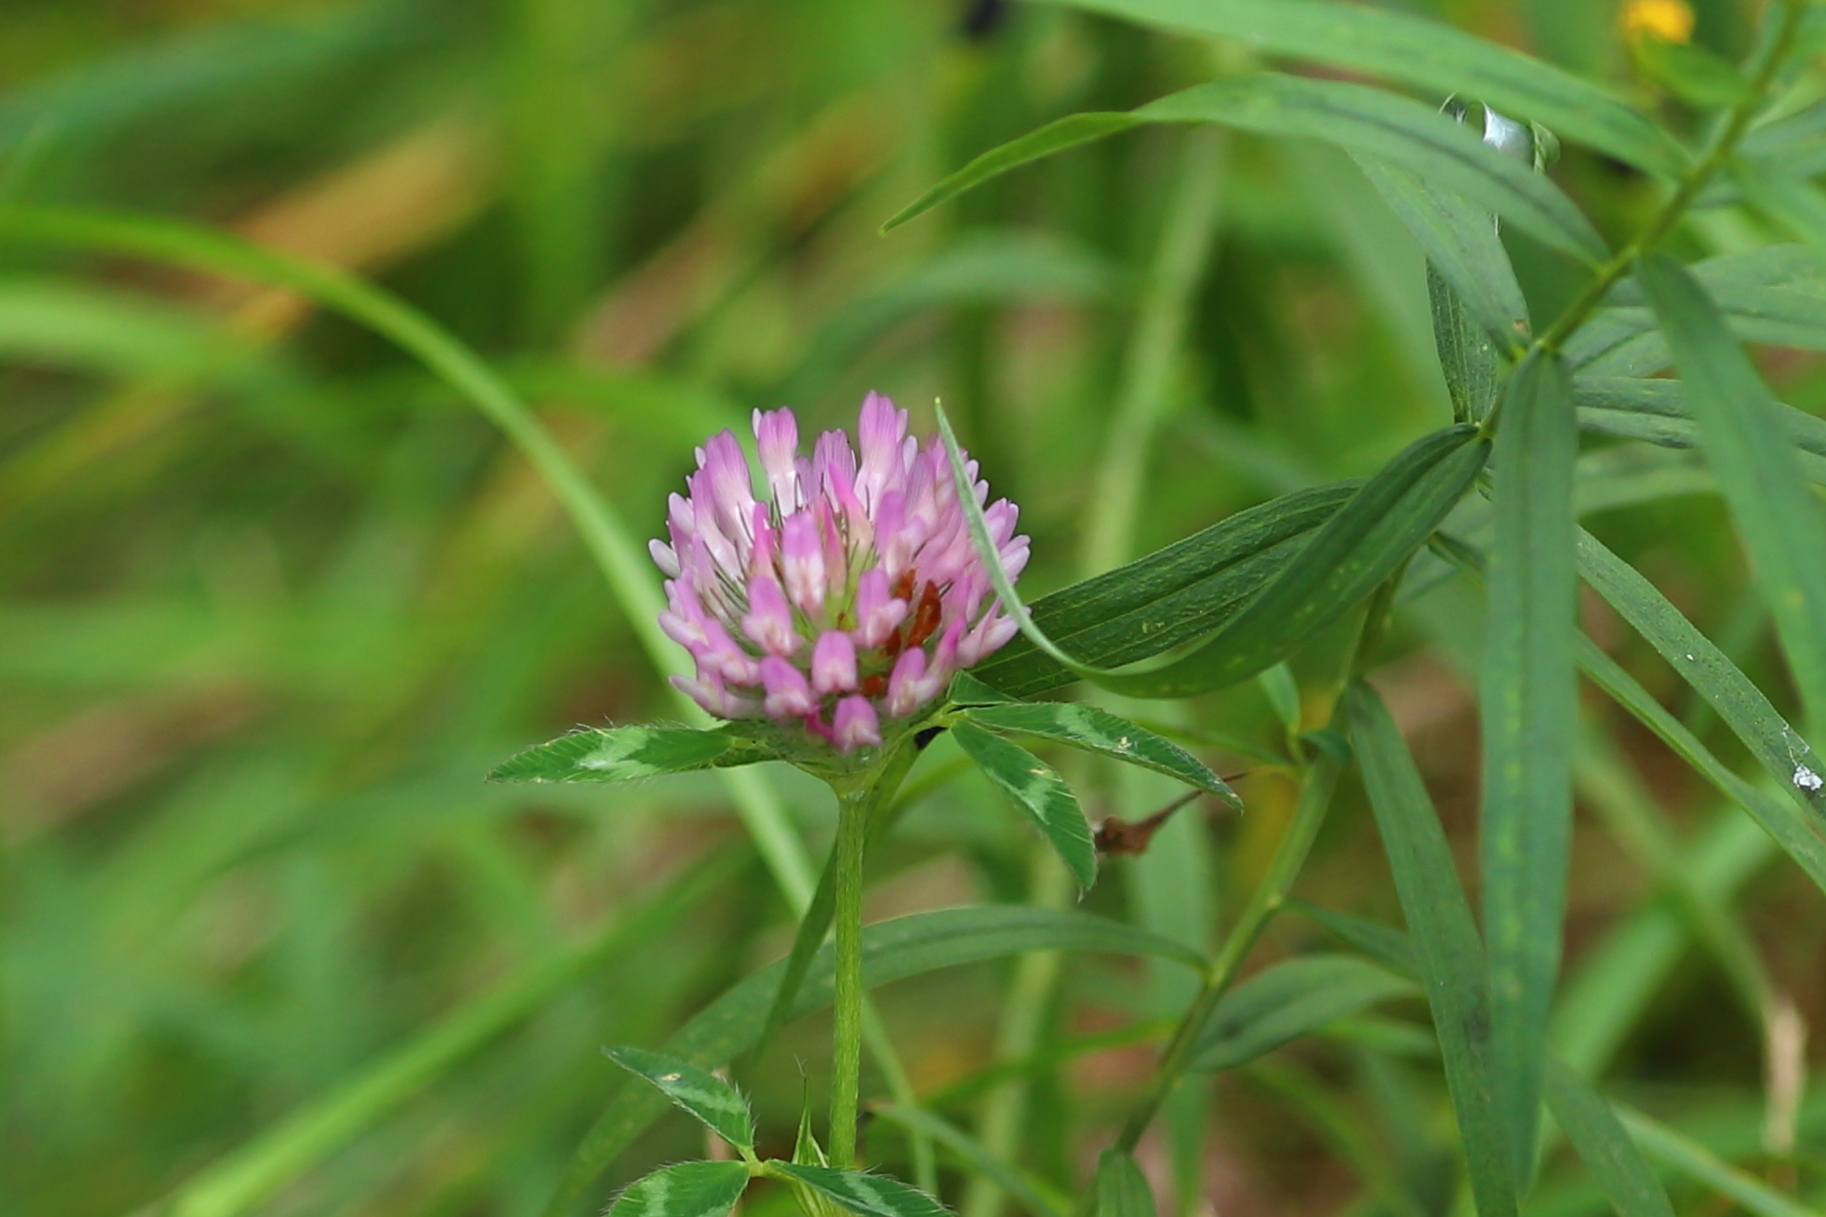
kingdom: Plantae
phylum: Tracheophyta
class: Magnoliopsida
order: Fabales
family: Fabaceae
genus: Trifolium
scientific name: Trifolium pratense
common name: Red clover
